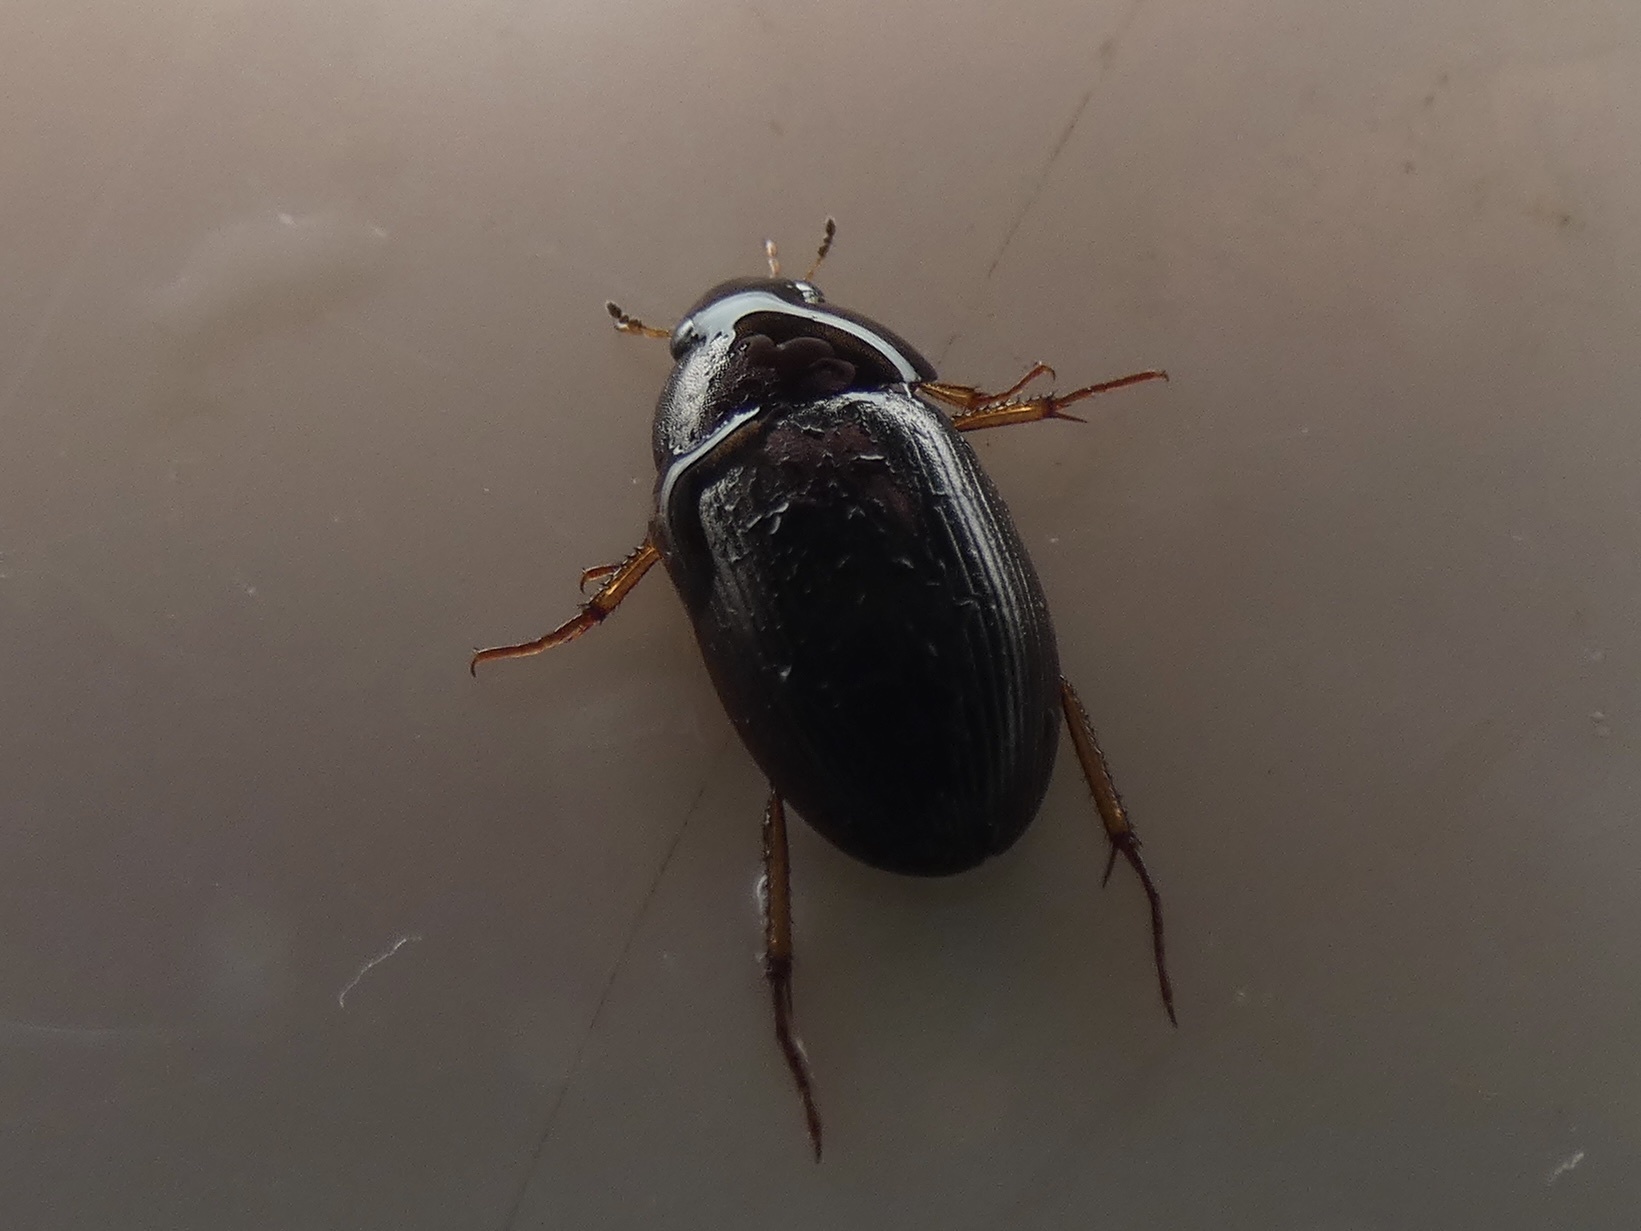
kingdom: Animalia
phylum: Arthropoda
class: Insecta
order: Coleoptera
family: Hydrophilidae
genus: Hydrobius
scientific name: Hydrobius
